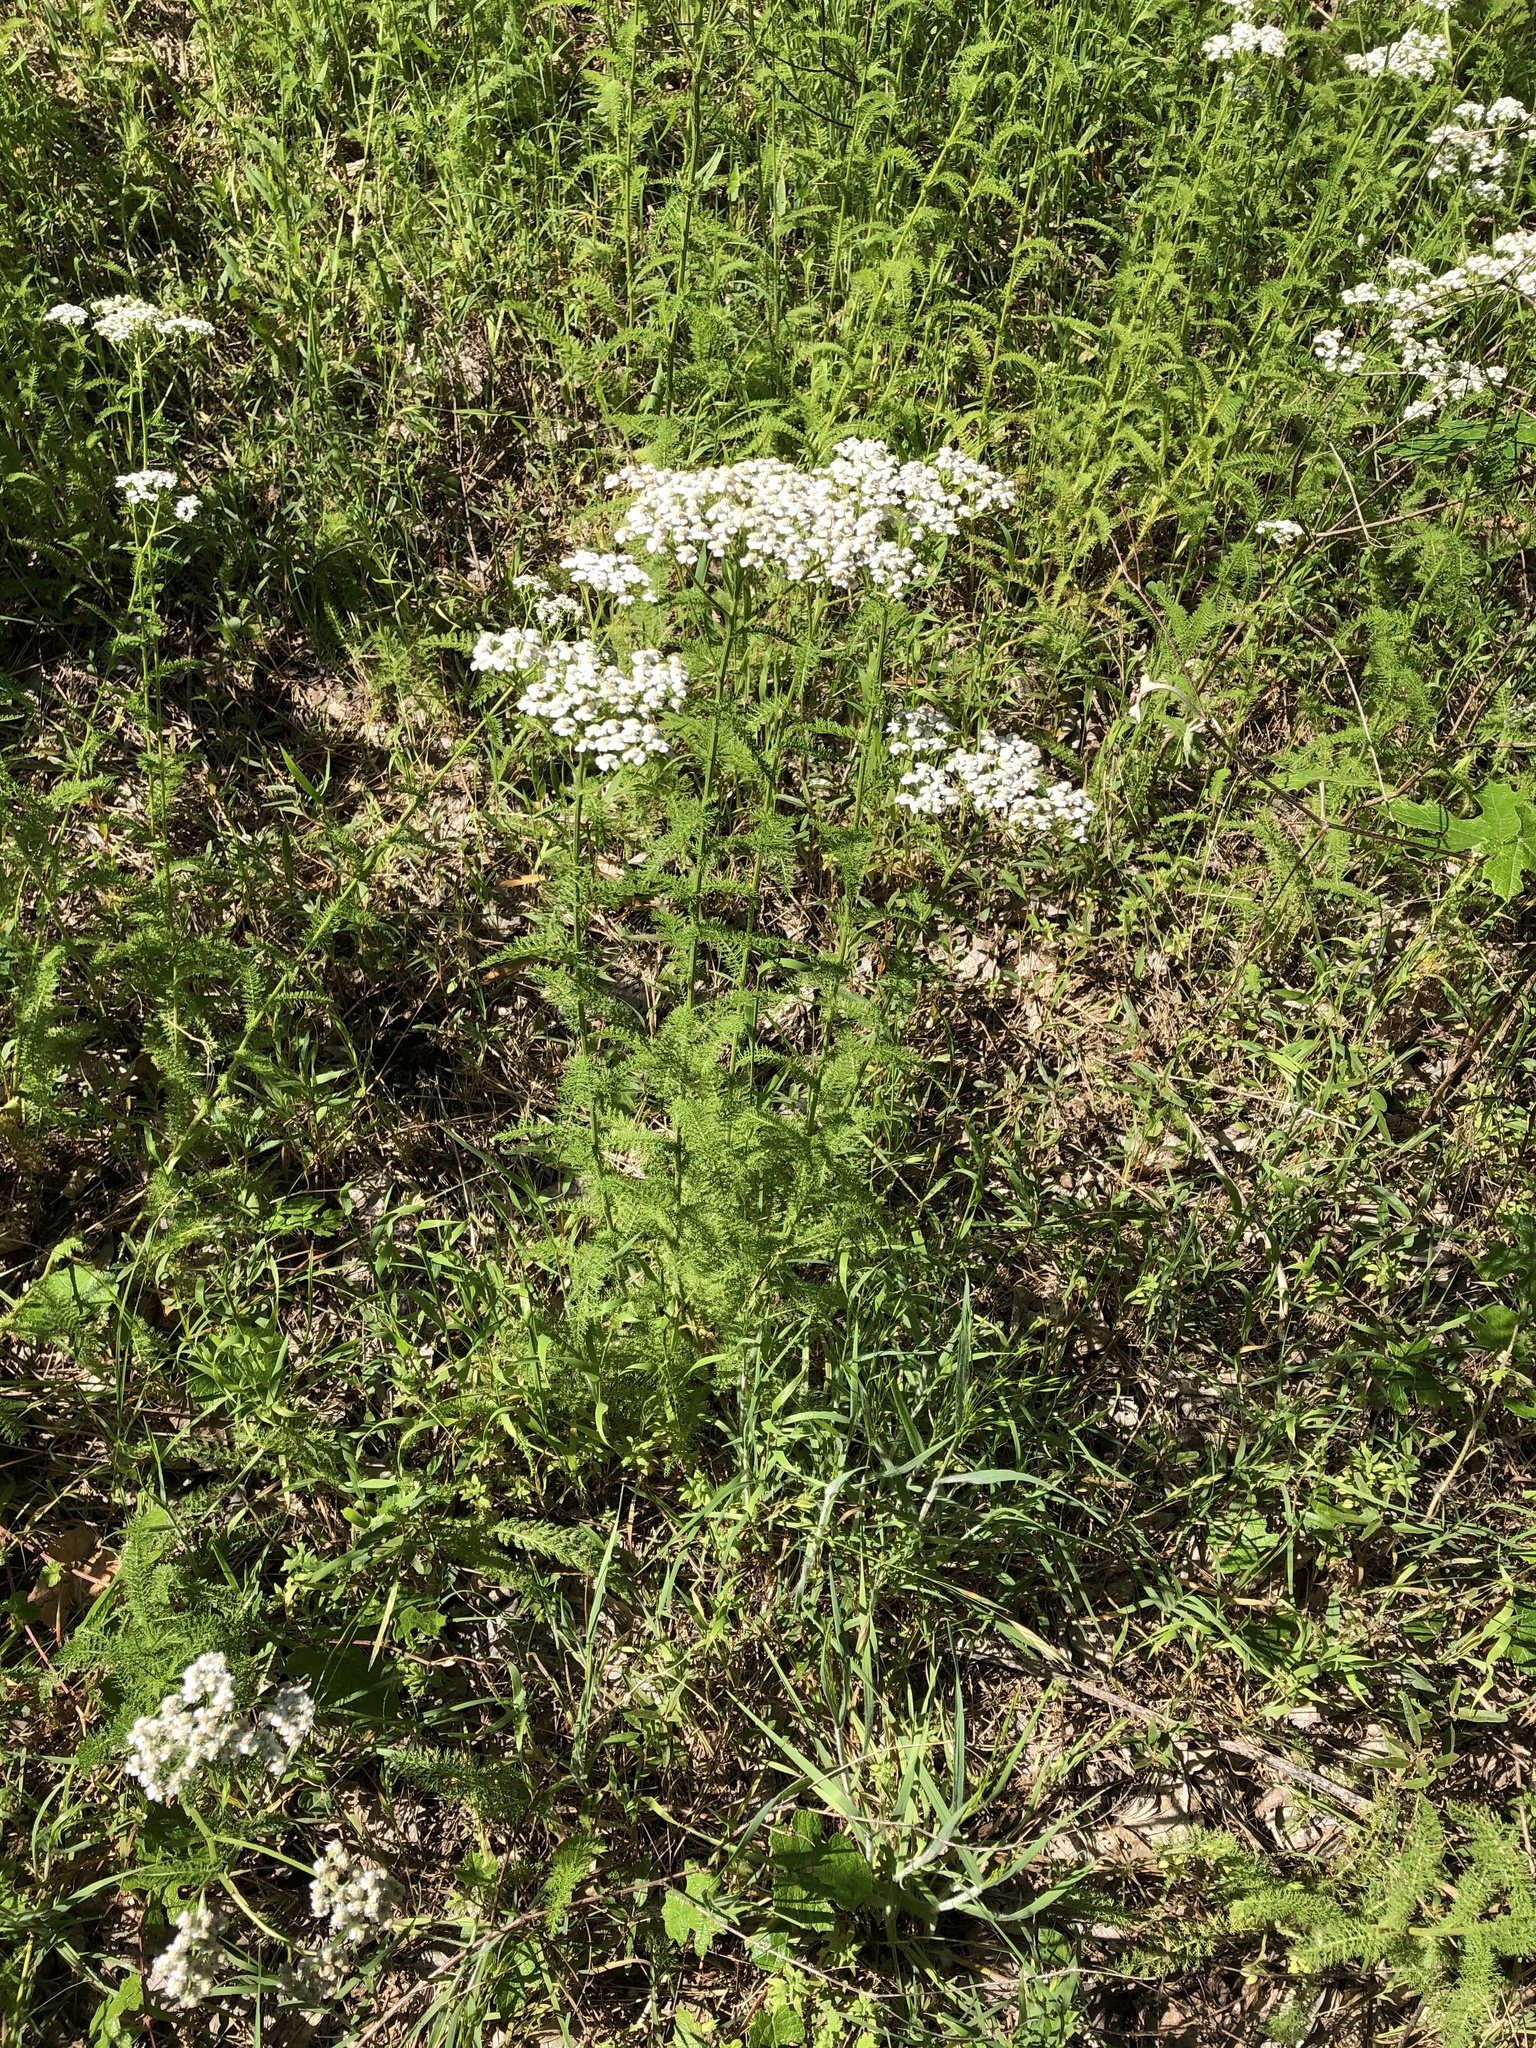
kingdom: Plantae
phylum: Tracheophyta
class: Magnoliopsida
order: Asterales
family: Asteraceae
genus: Achillea
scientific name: Achillea millefolium
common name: Yarrow
